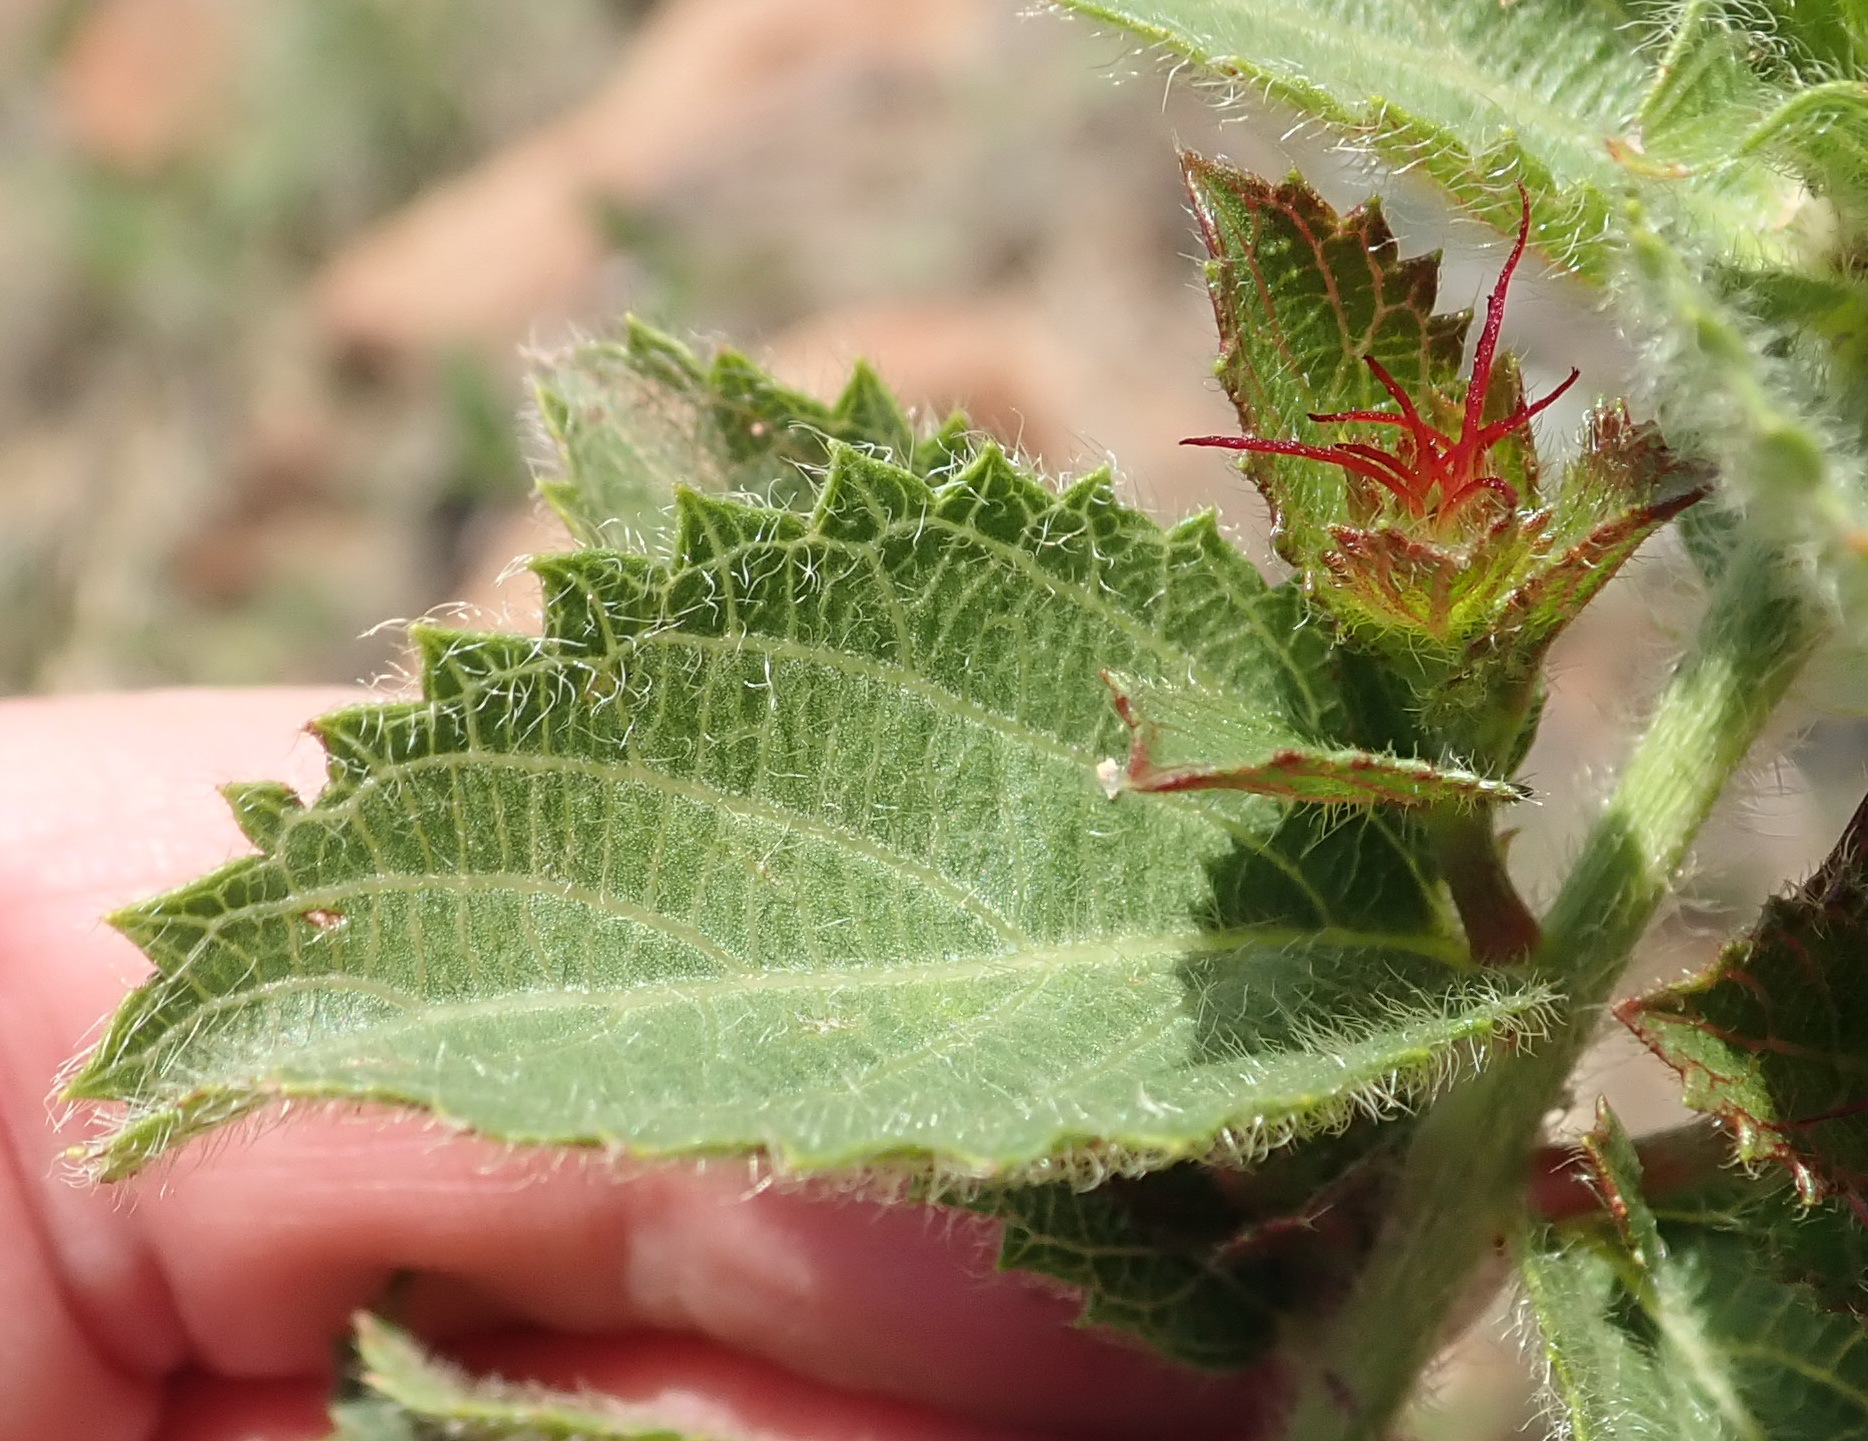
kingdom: Plantae
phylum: Tracheophyta
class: Magnoliopsida
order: Malpighiales
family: Euphorbiaceae
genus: Acalypha
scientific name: Acalypha petiolaris
